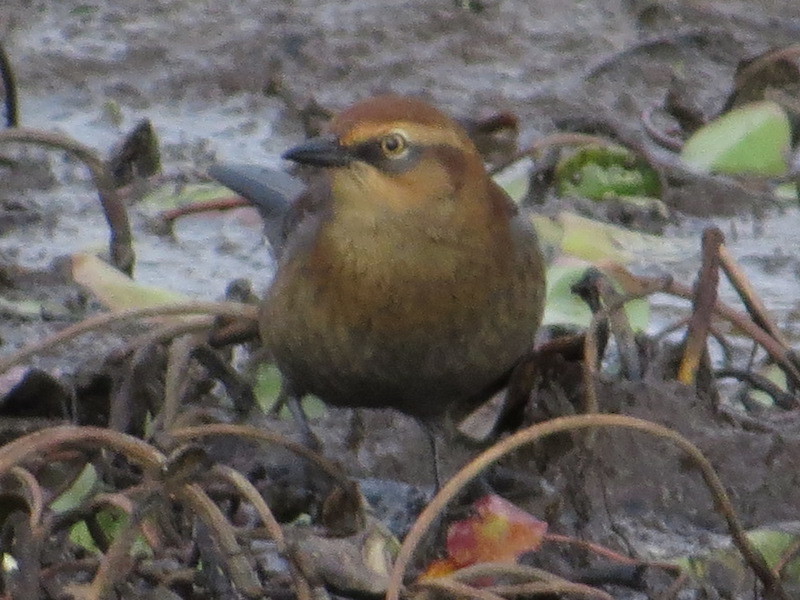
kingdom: Animalia
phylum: Chordata
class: Aves
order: Passeriformes
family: Icteridae
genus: Euphagus
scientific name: Euphagus carolinus
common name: Rusty blackbird
